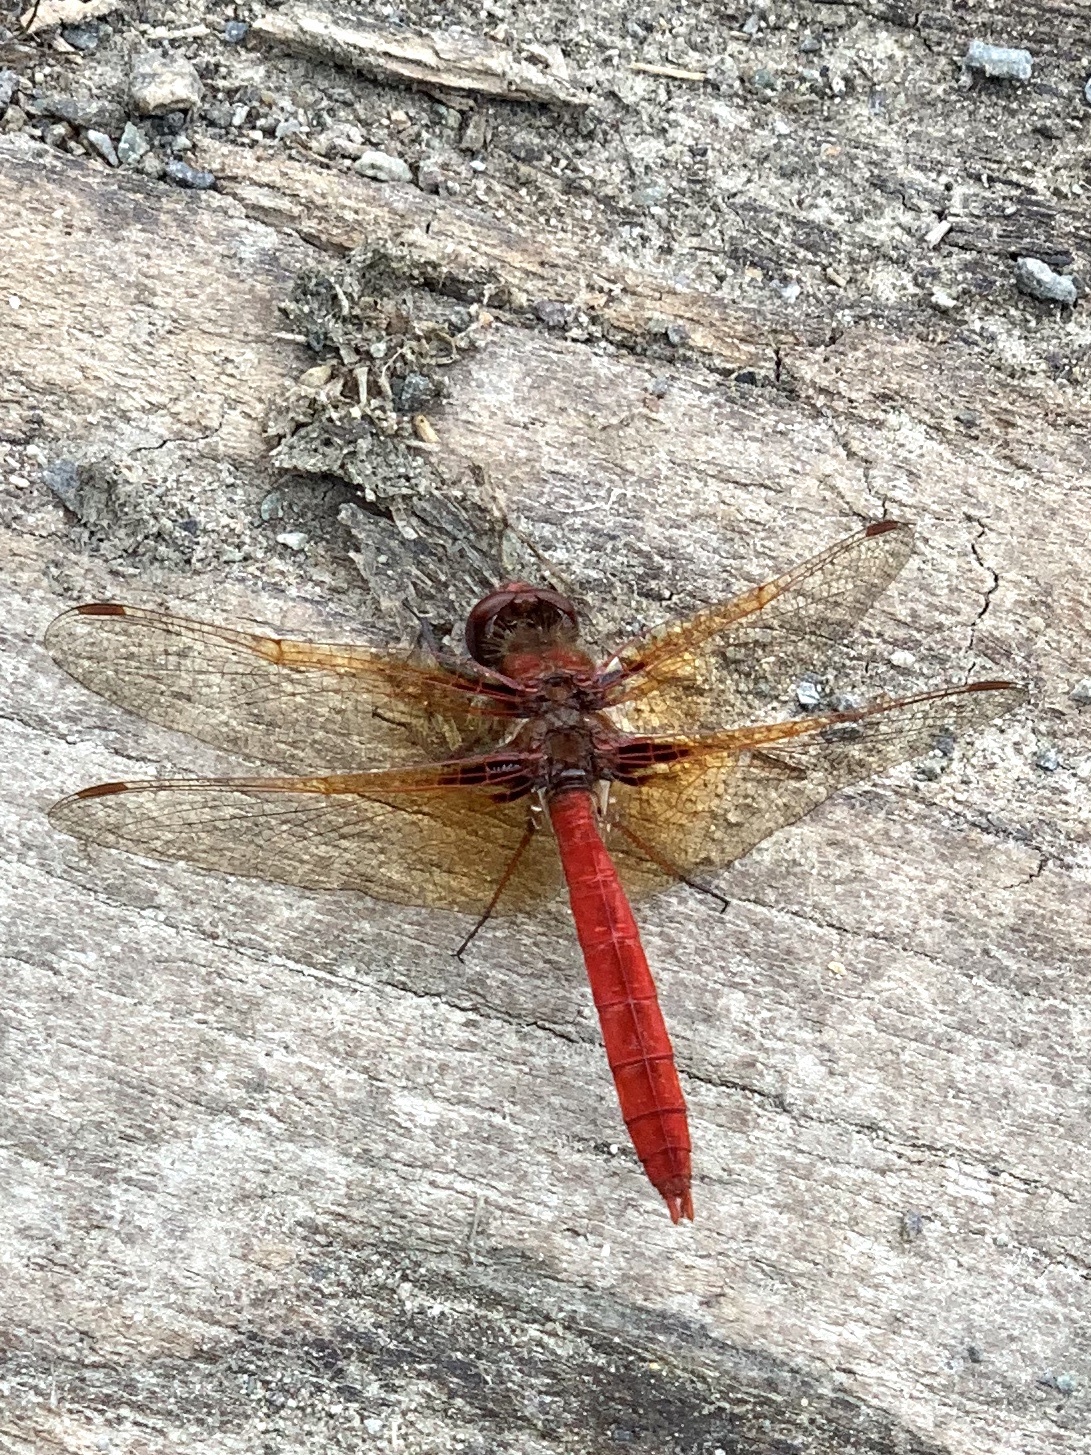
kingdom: Animalia
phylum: Arthropoda
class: Insecta
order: Odonata
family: Libellulidae
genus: Sympetrum
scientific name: Sympetrum illotum
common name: Cardinal meadowhawk
